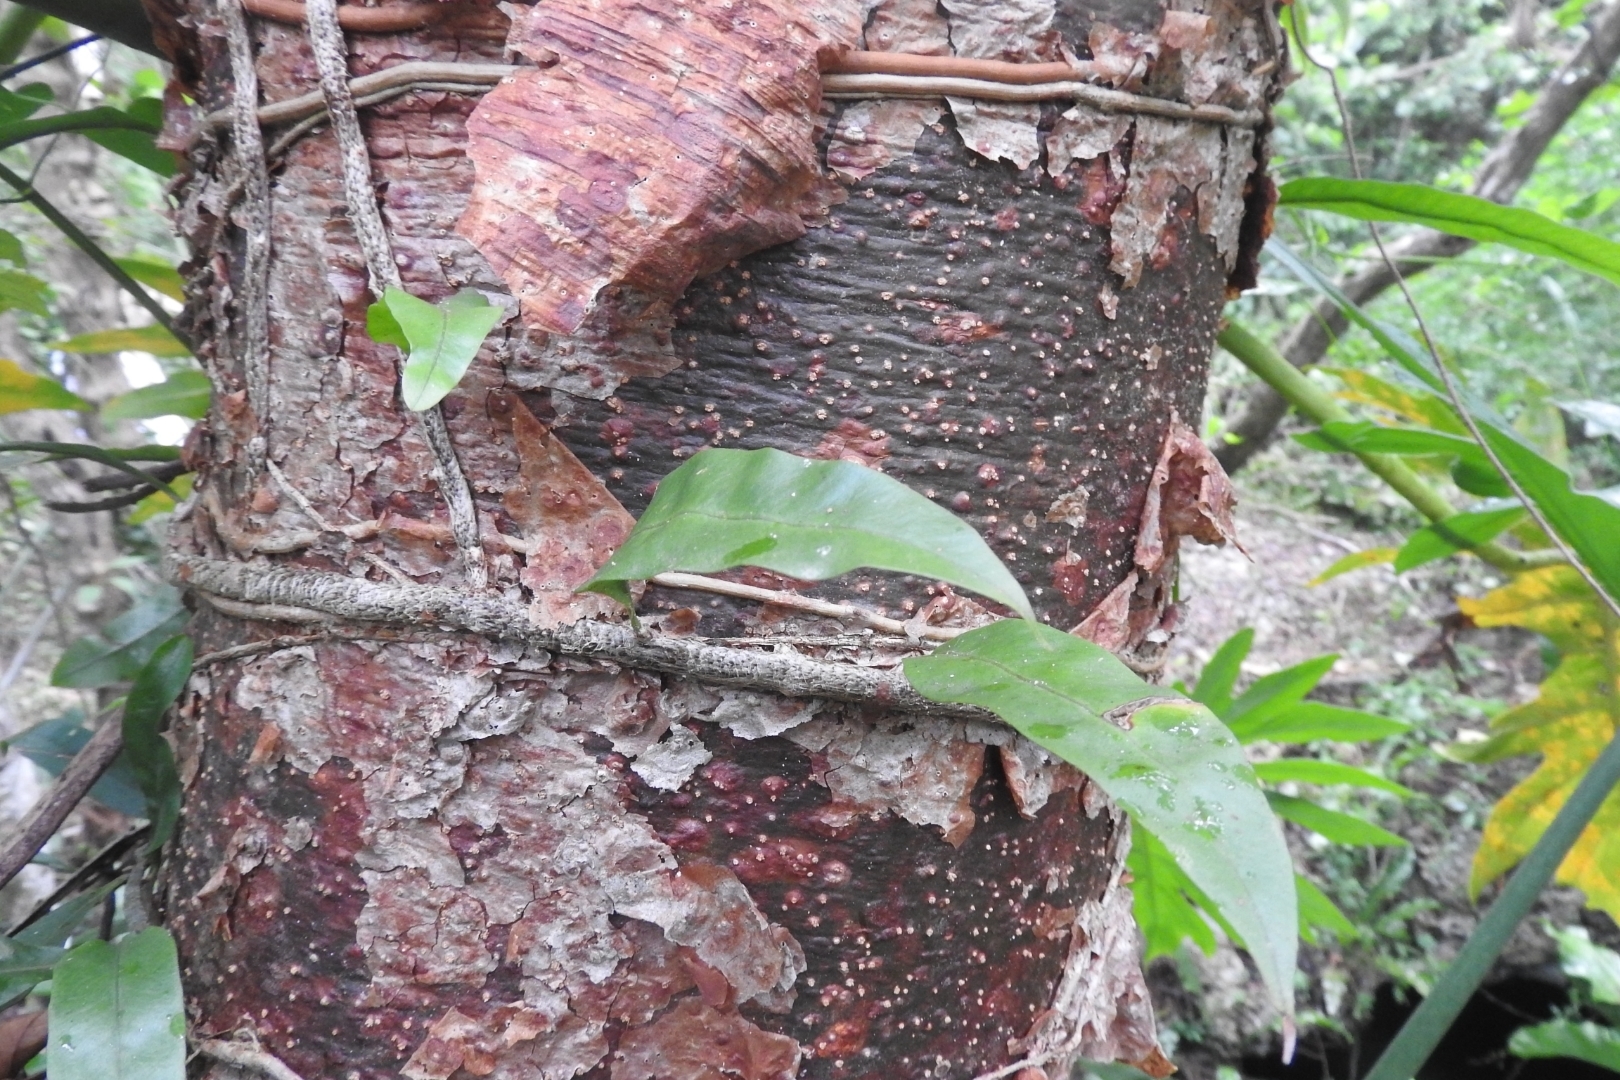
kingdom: Plantae
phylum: Tracheophyta
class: Polypodiopsida
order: Polypodiales
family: Polypodiaceae
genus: Microgramma
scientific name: Microgramma nitida
